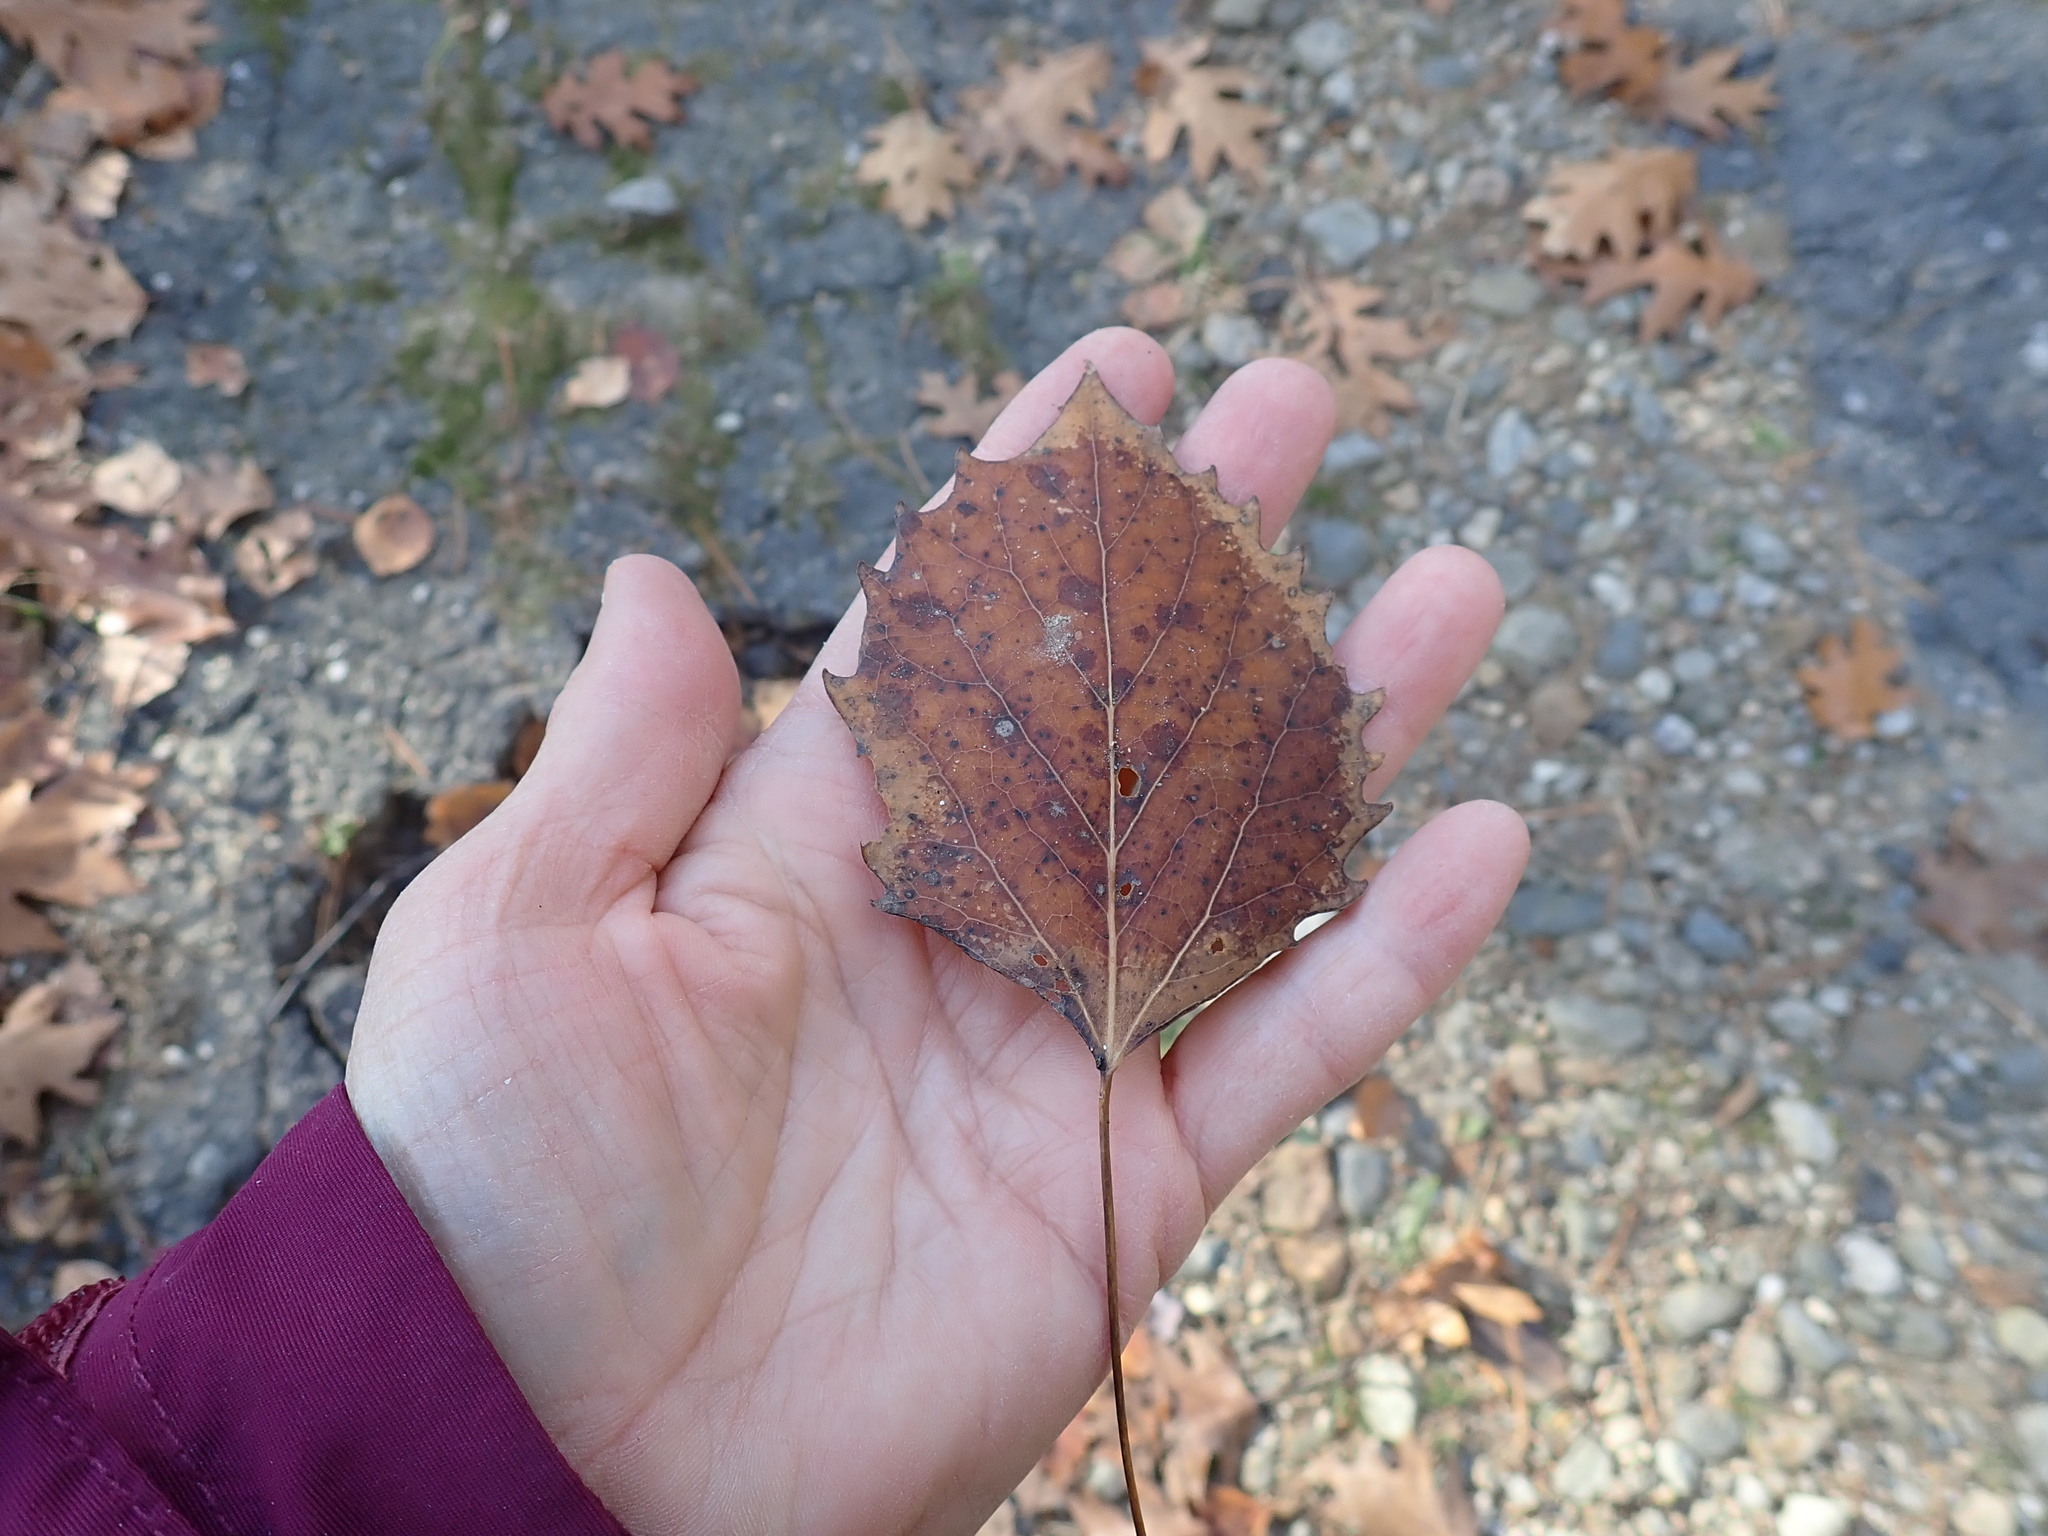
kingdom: Plantae
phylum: Tracheophyta
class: Magnoliopsida
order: Malpighiales
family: Salicaceae
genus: Populus
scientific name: Populus grandidentata
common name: Bigtooth aspen
